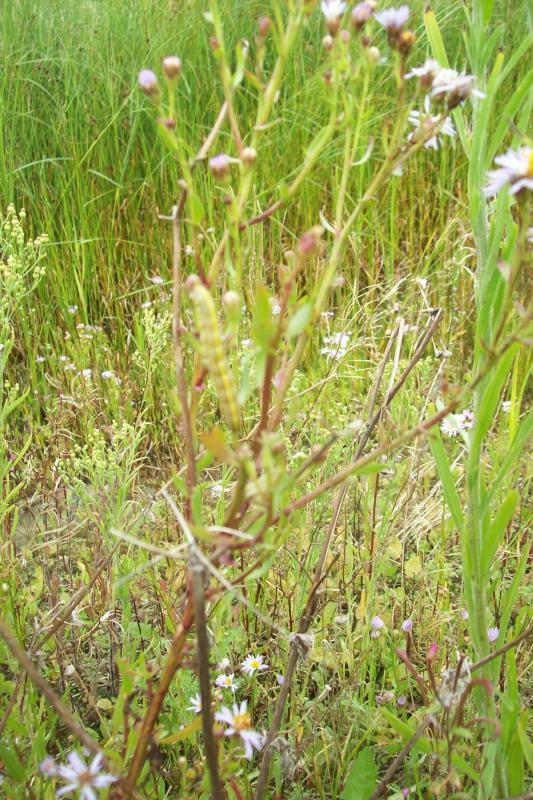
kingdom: Animalia
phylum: Arthropoda
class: Insecta
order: Lepidoptera
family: Noctuidae
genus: Cucullia
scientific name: Cucullia asteris
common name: Star-wort
